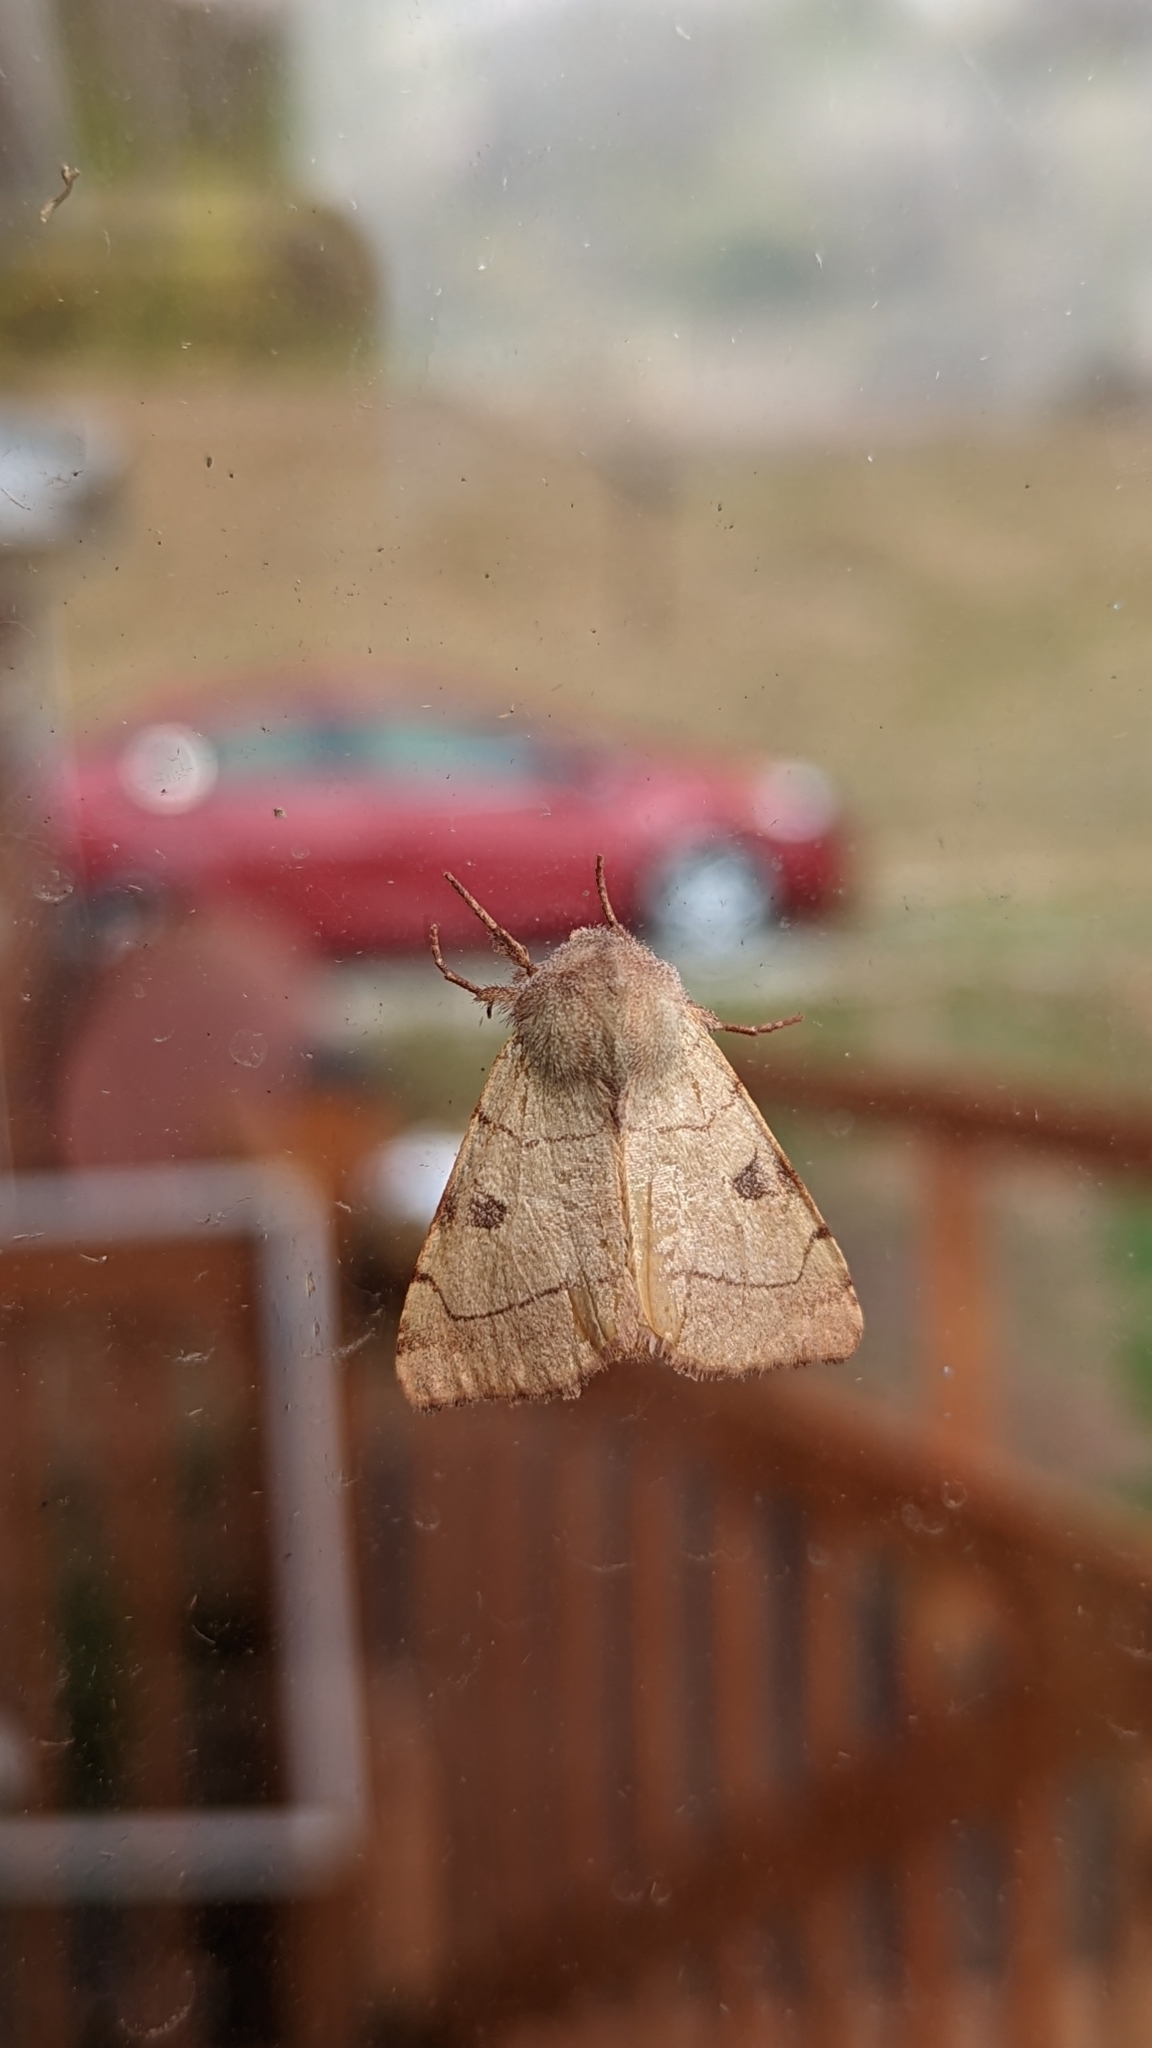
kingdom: Animalia
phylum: Arthropoda
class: Insecta
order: Lepidoptera
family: Noctuidae
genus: Choephora
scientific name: Choephora fungorum
